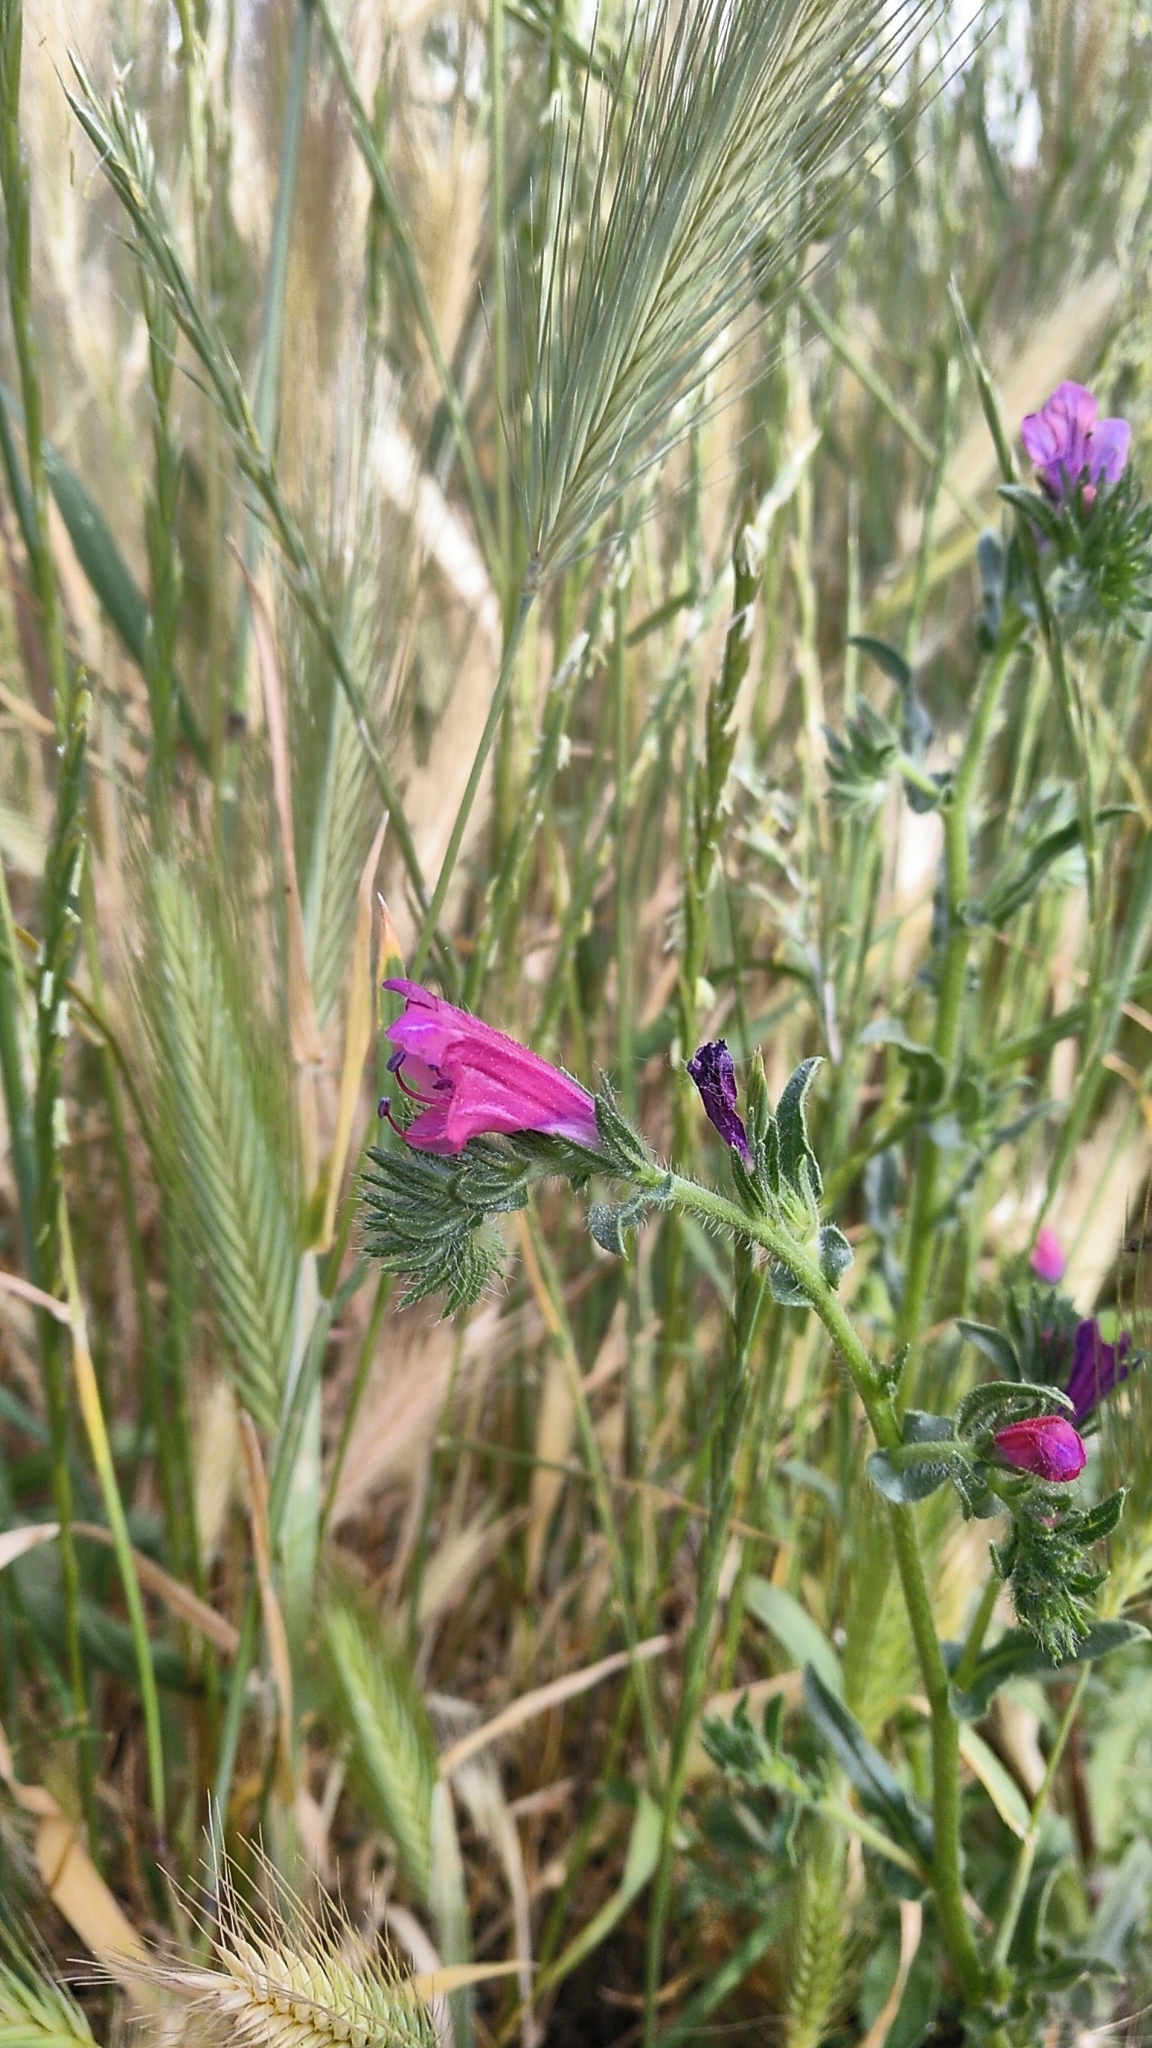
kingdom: Plantae
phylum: Tracheophyta
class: Magnoliopsida
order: Boraginales
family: Boraginaceae
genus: Echium
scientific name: Echium plantagineum
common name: Purple viper's-bugloss
